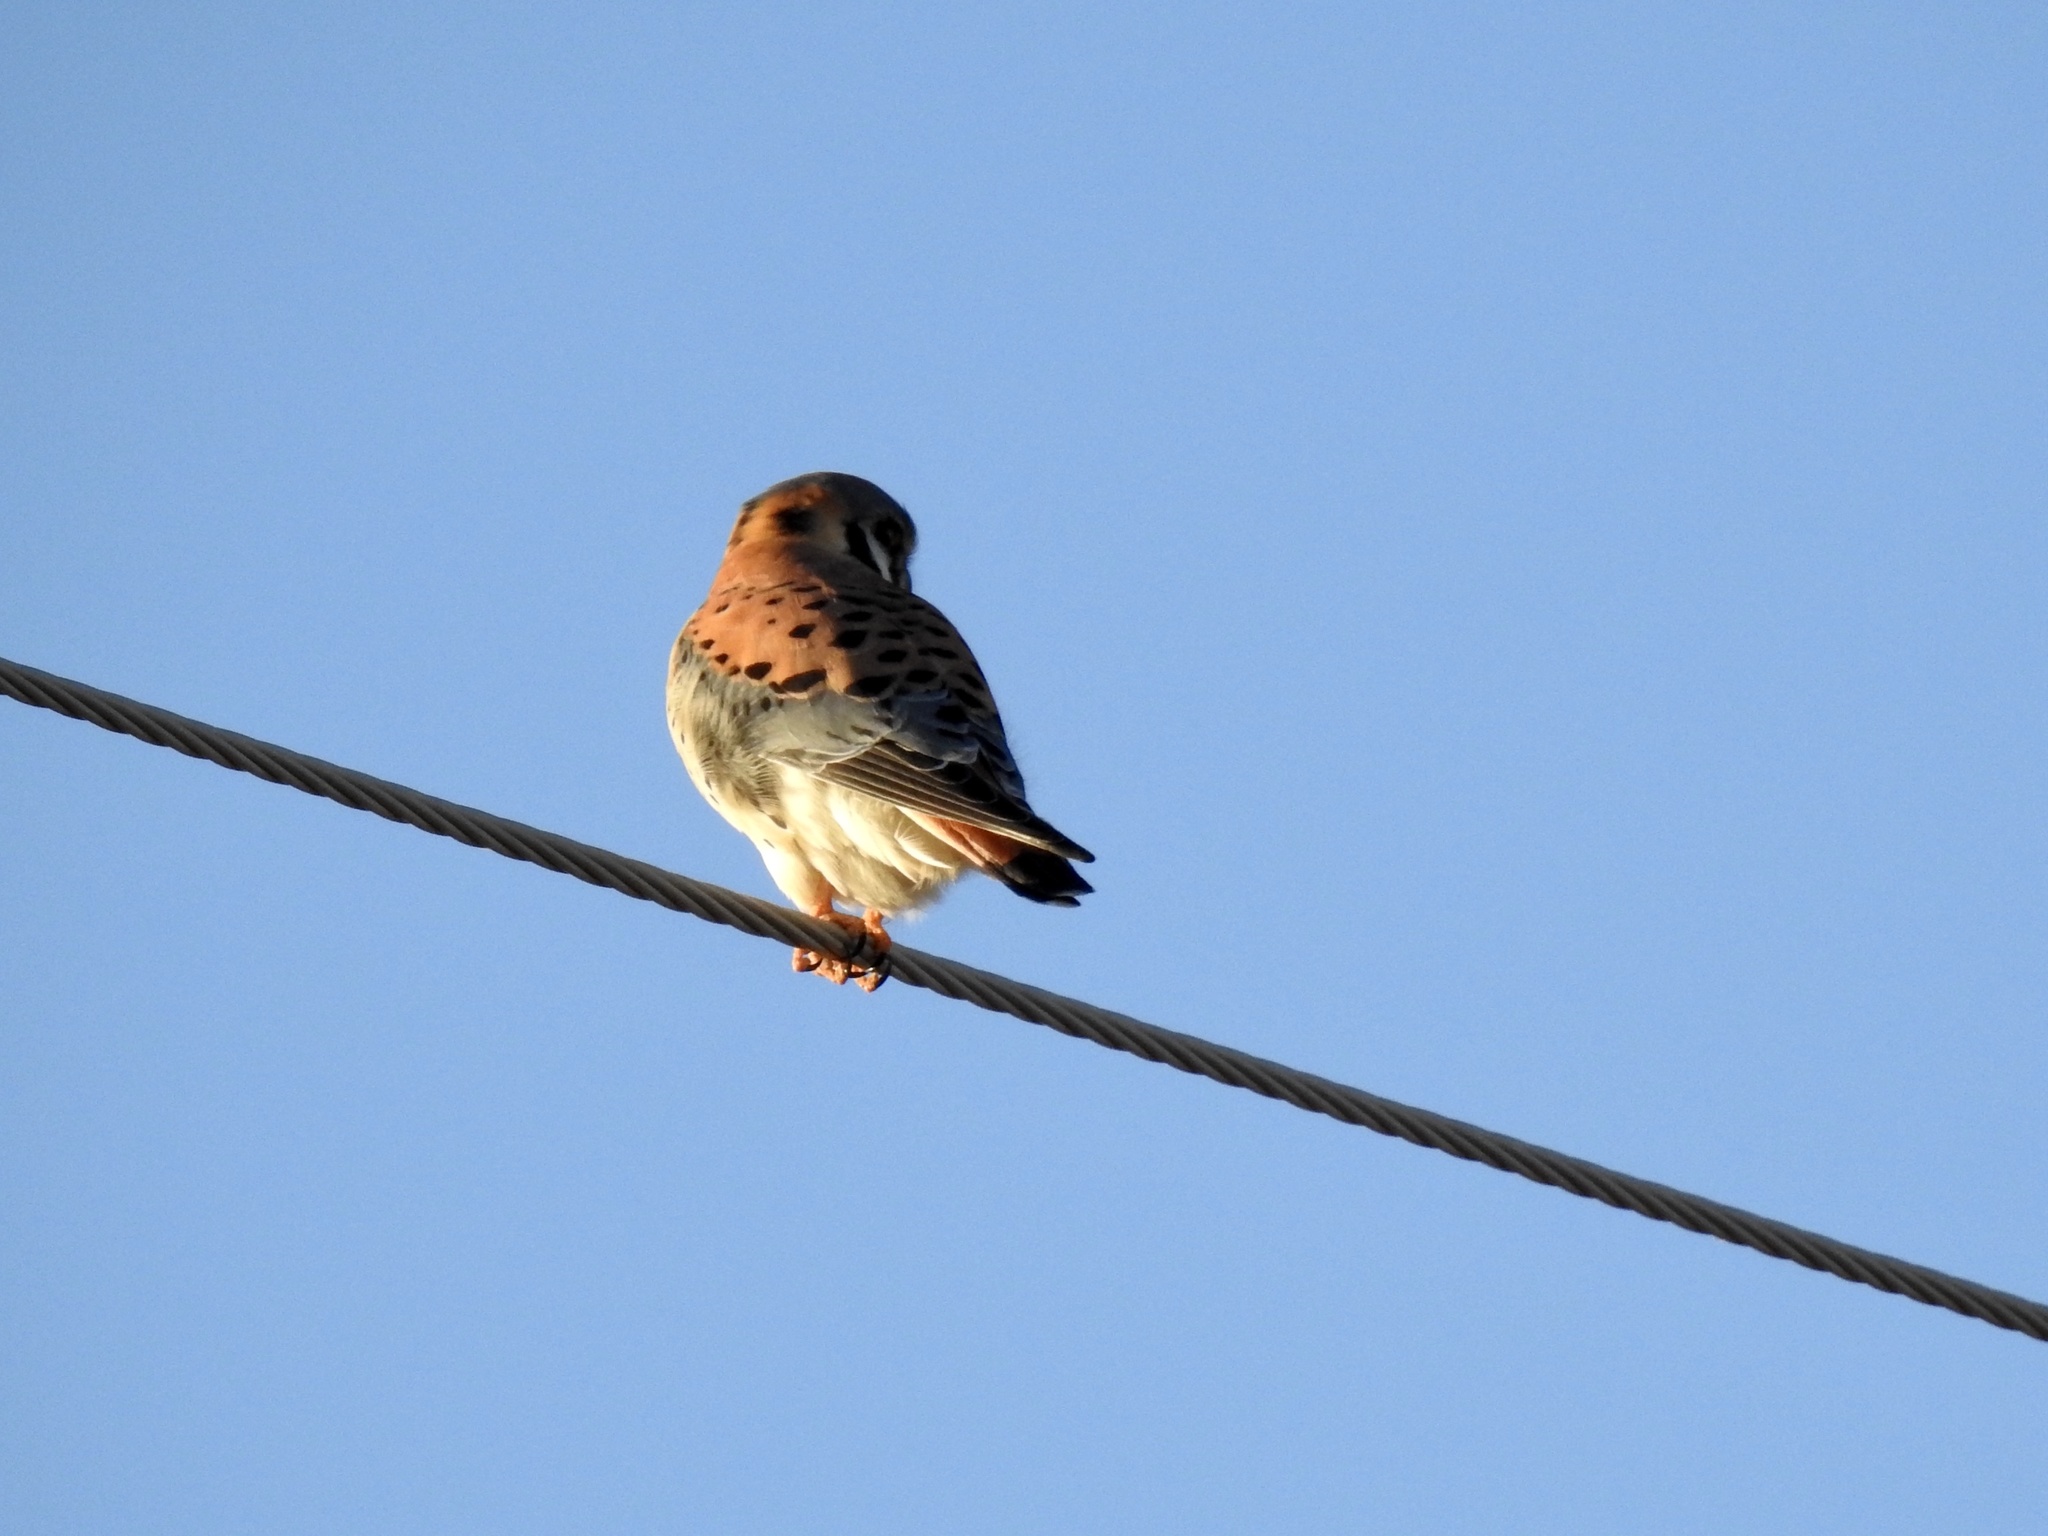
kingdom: Animalia
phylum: Chordata
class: Aves
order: Falconiformes
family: Falconidae
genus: Falco
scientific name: Falco sparverius
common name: American kestrel
